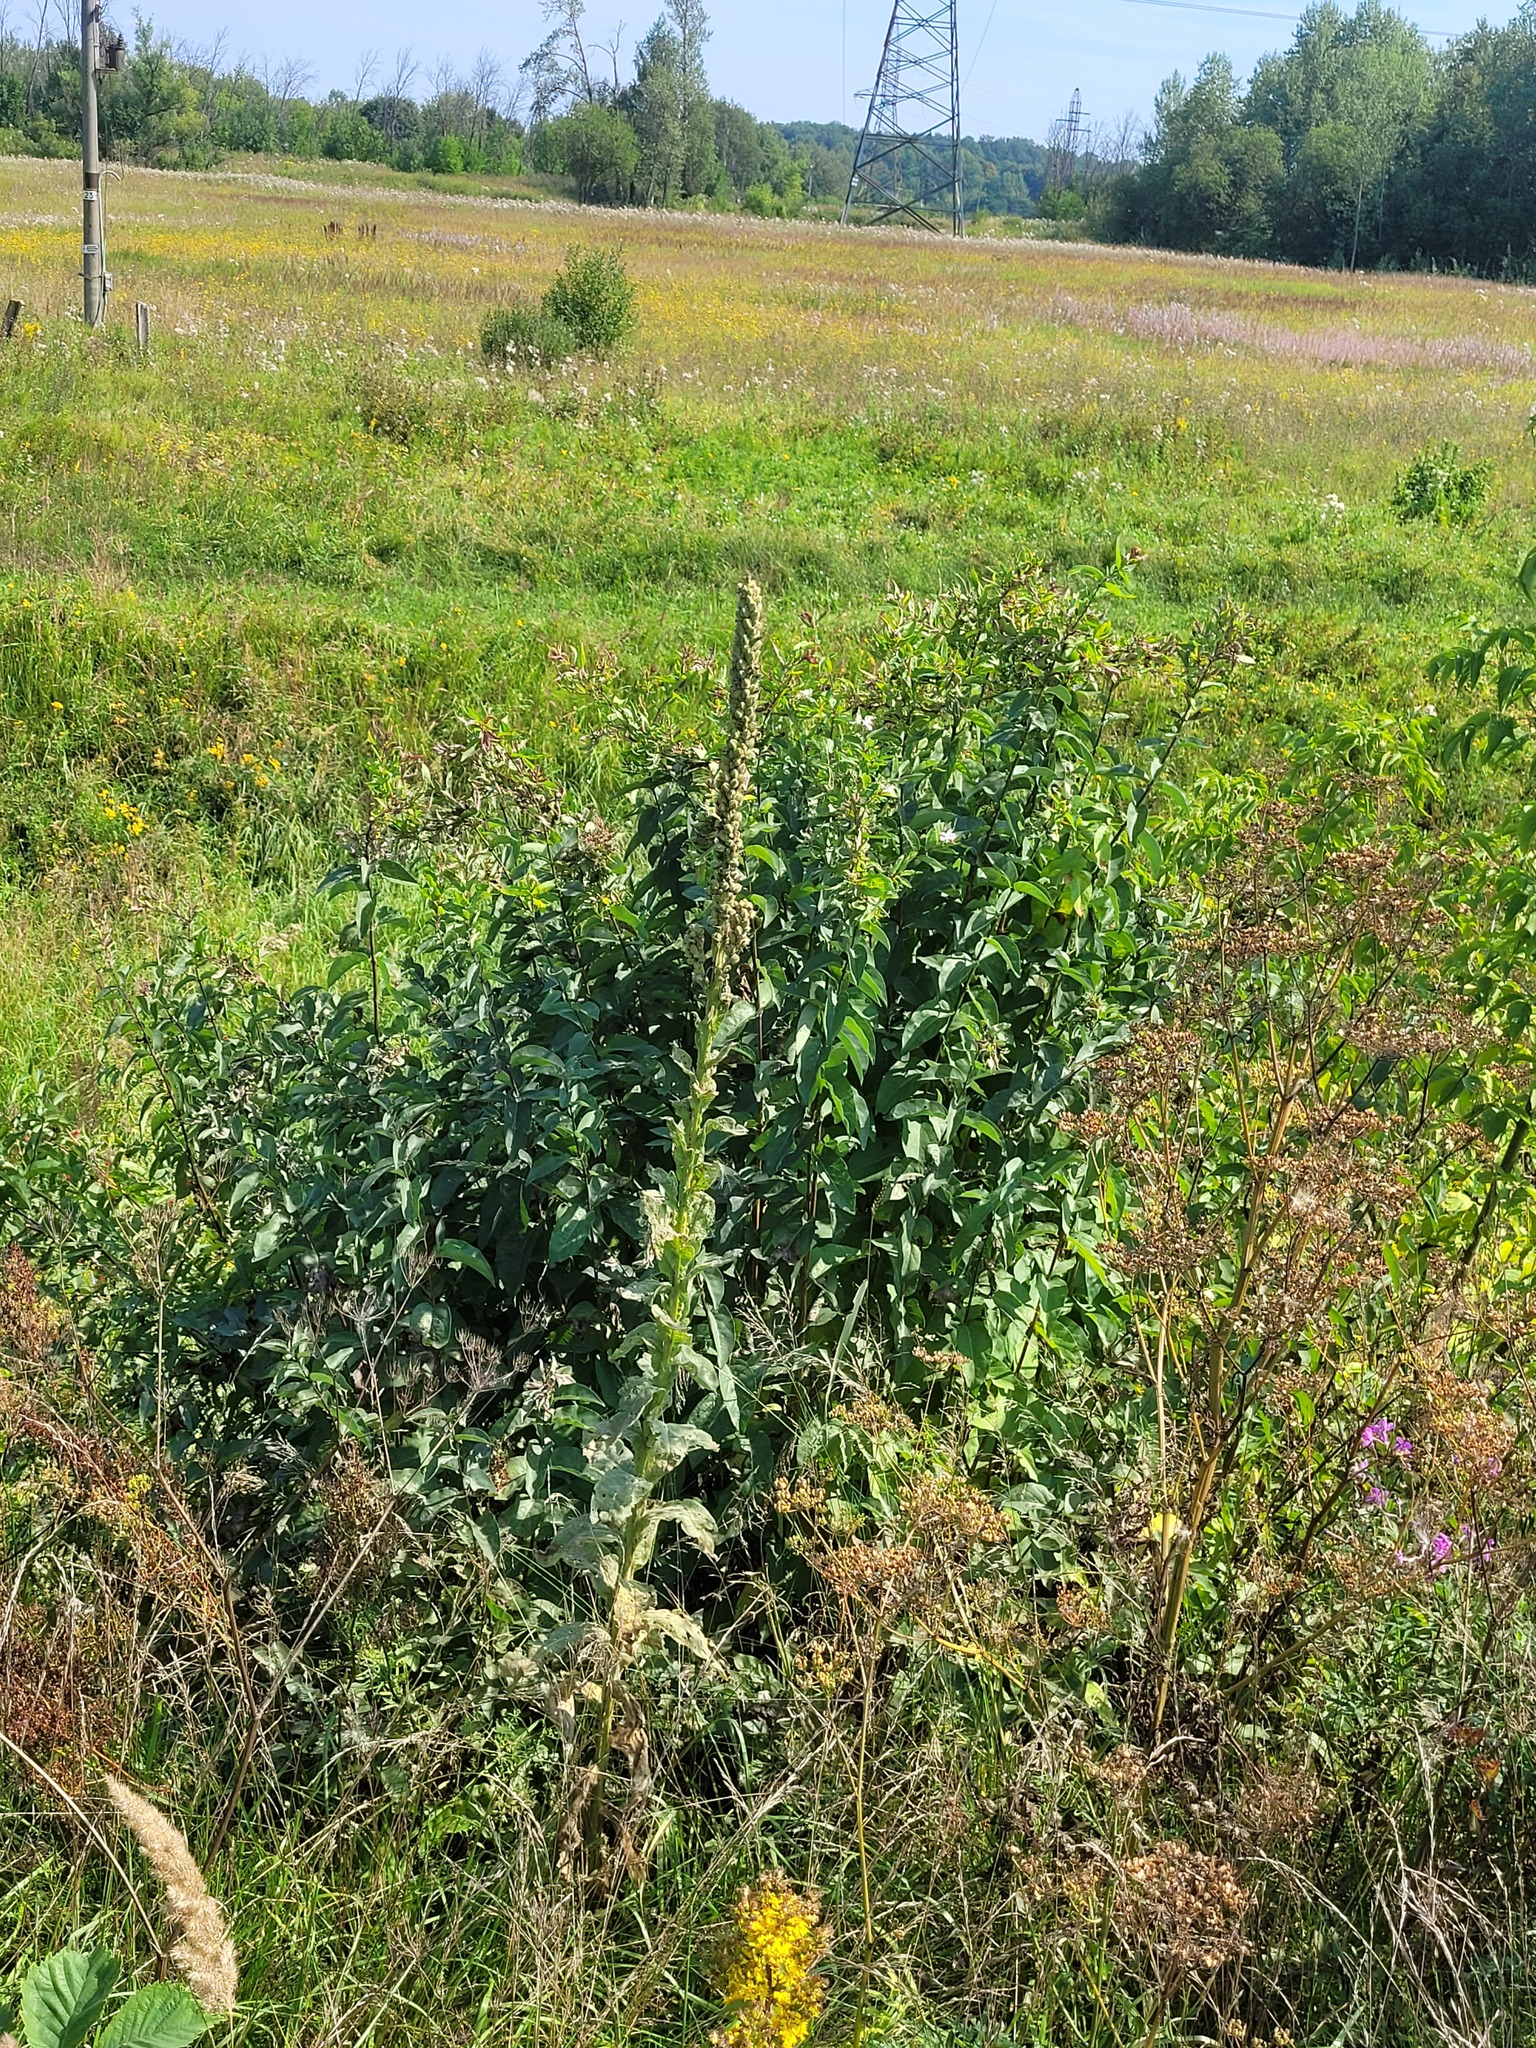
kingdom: Plantae
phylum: Tracheophyta
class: Magnoliopsida
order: Dipsacales
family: Caprifoliaceae
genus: Lonicera
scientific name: Lonicera tatarica
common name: Tatarian honeysuckle
